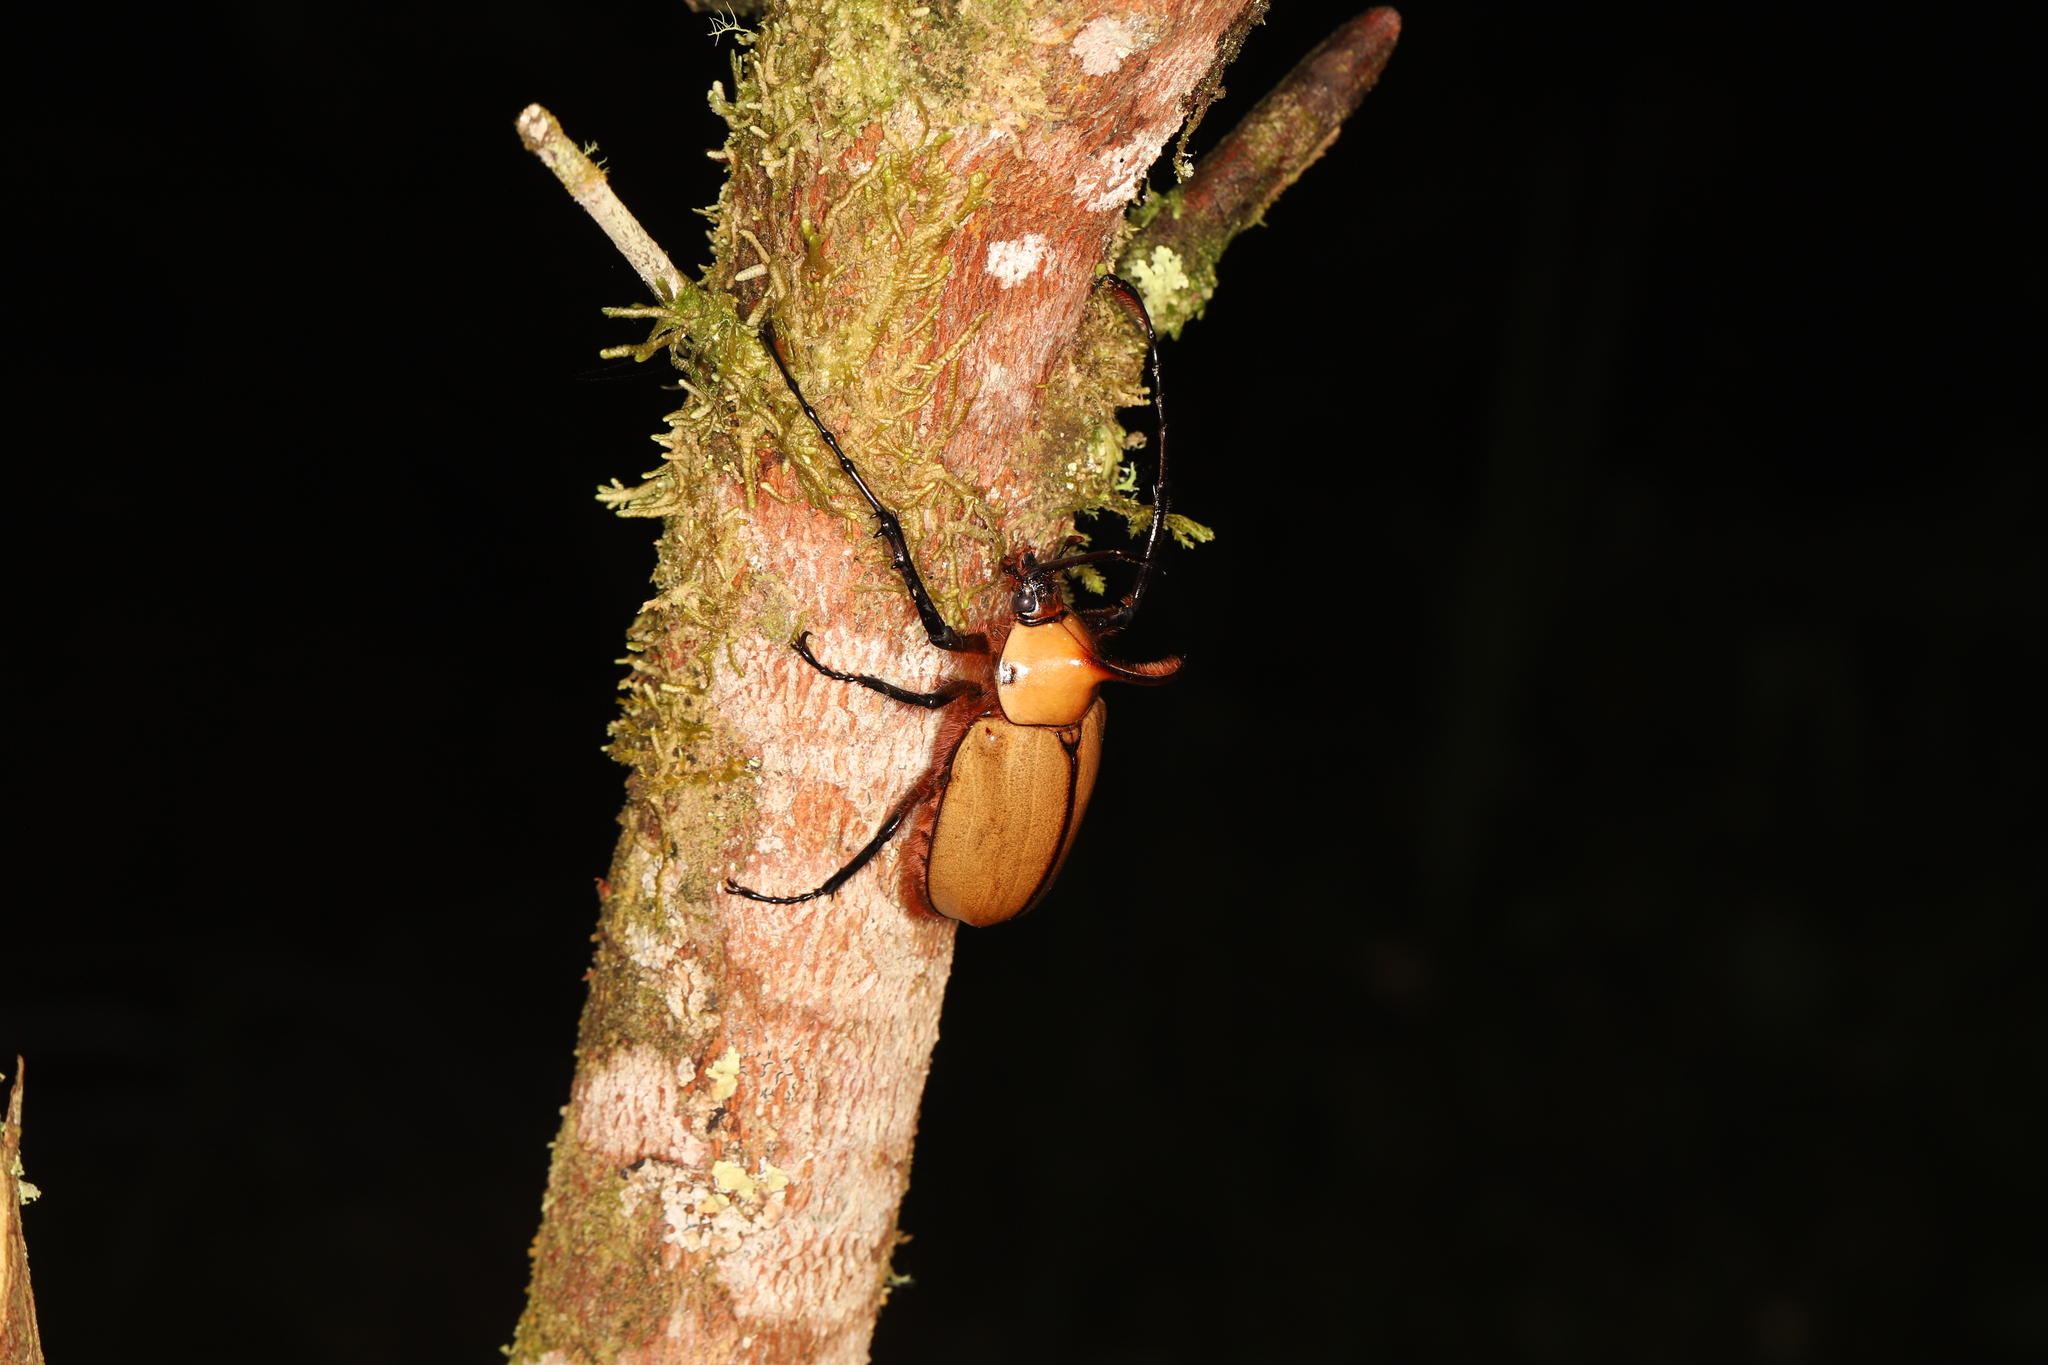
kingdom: Animalia
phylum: Arthropoda
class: Insecta
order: Coleoptera
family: Scarabaeidae
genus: Golofa
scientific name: Golofa porteri
